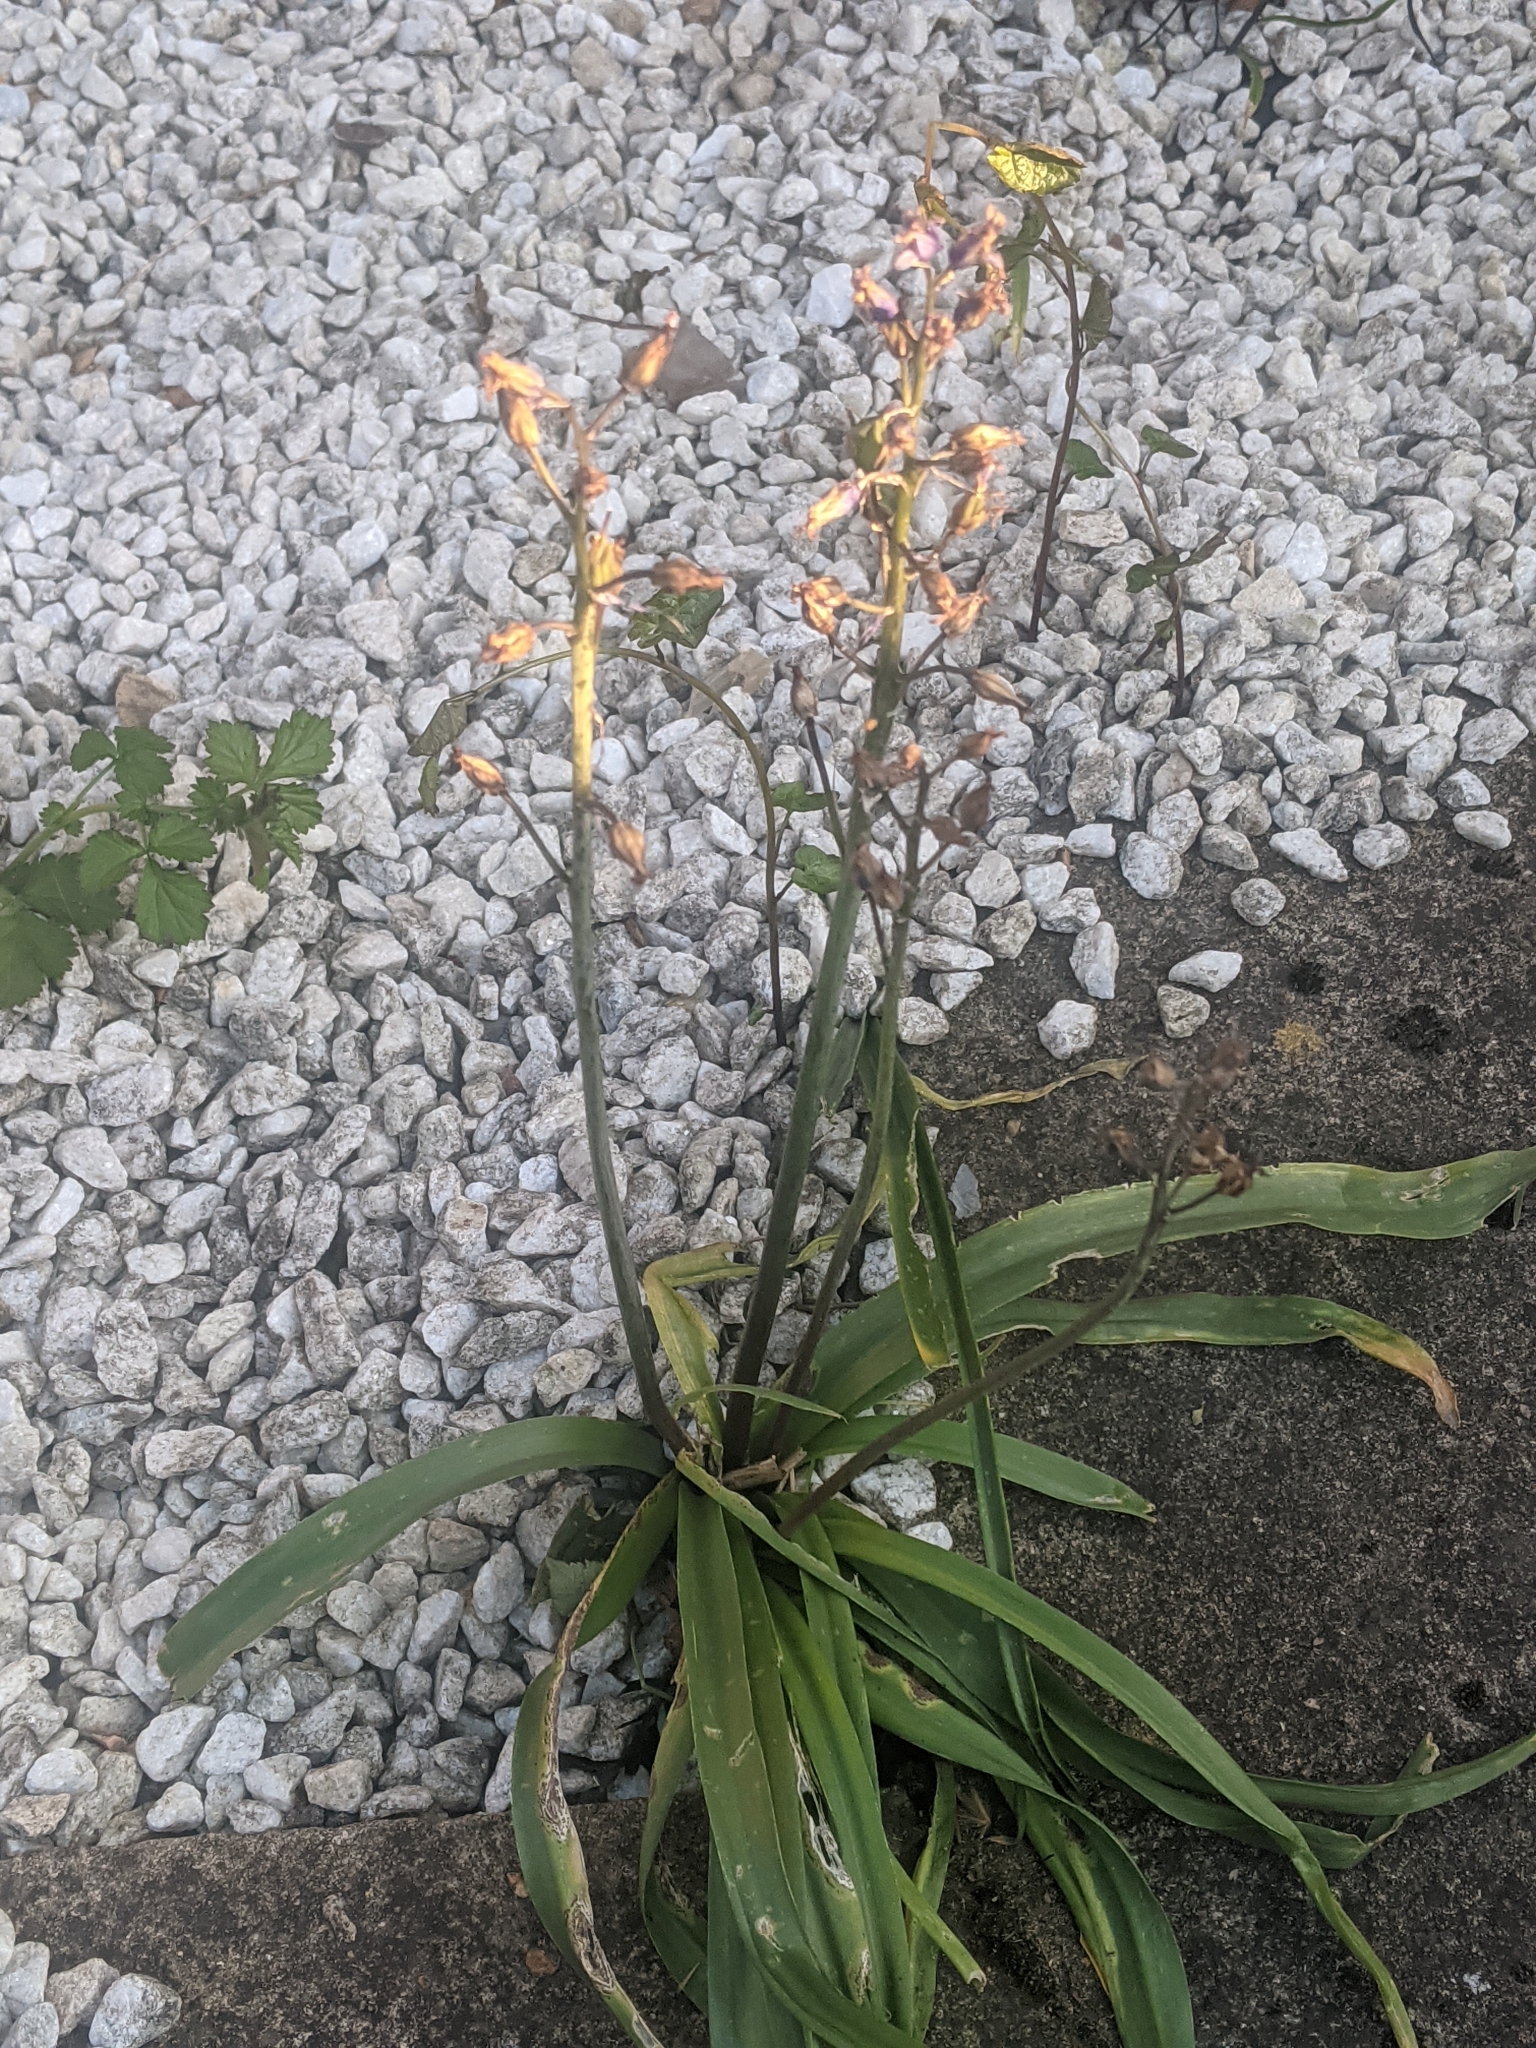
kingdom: Fungi
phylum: Basidiomycota
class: Pucciniomycetes
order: Pucciniales
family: Pucciniaceae
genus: Uromyces
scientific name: Uromyces hyacinthi
